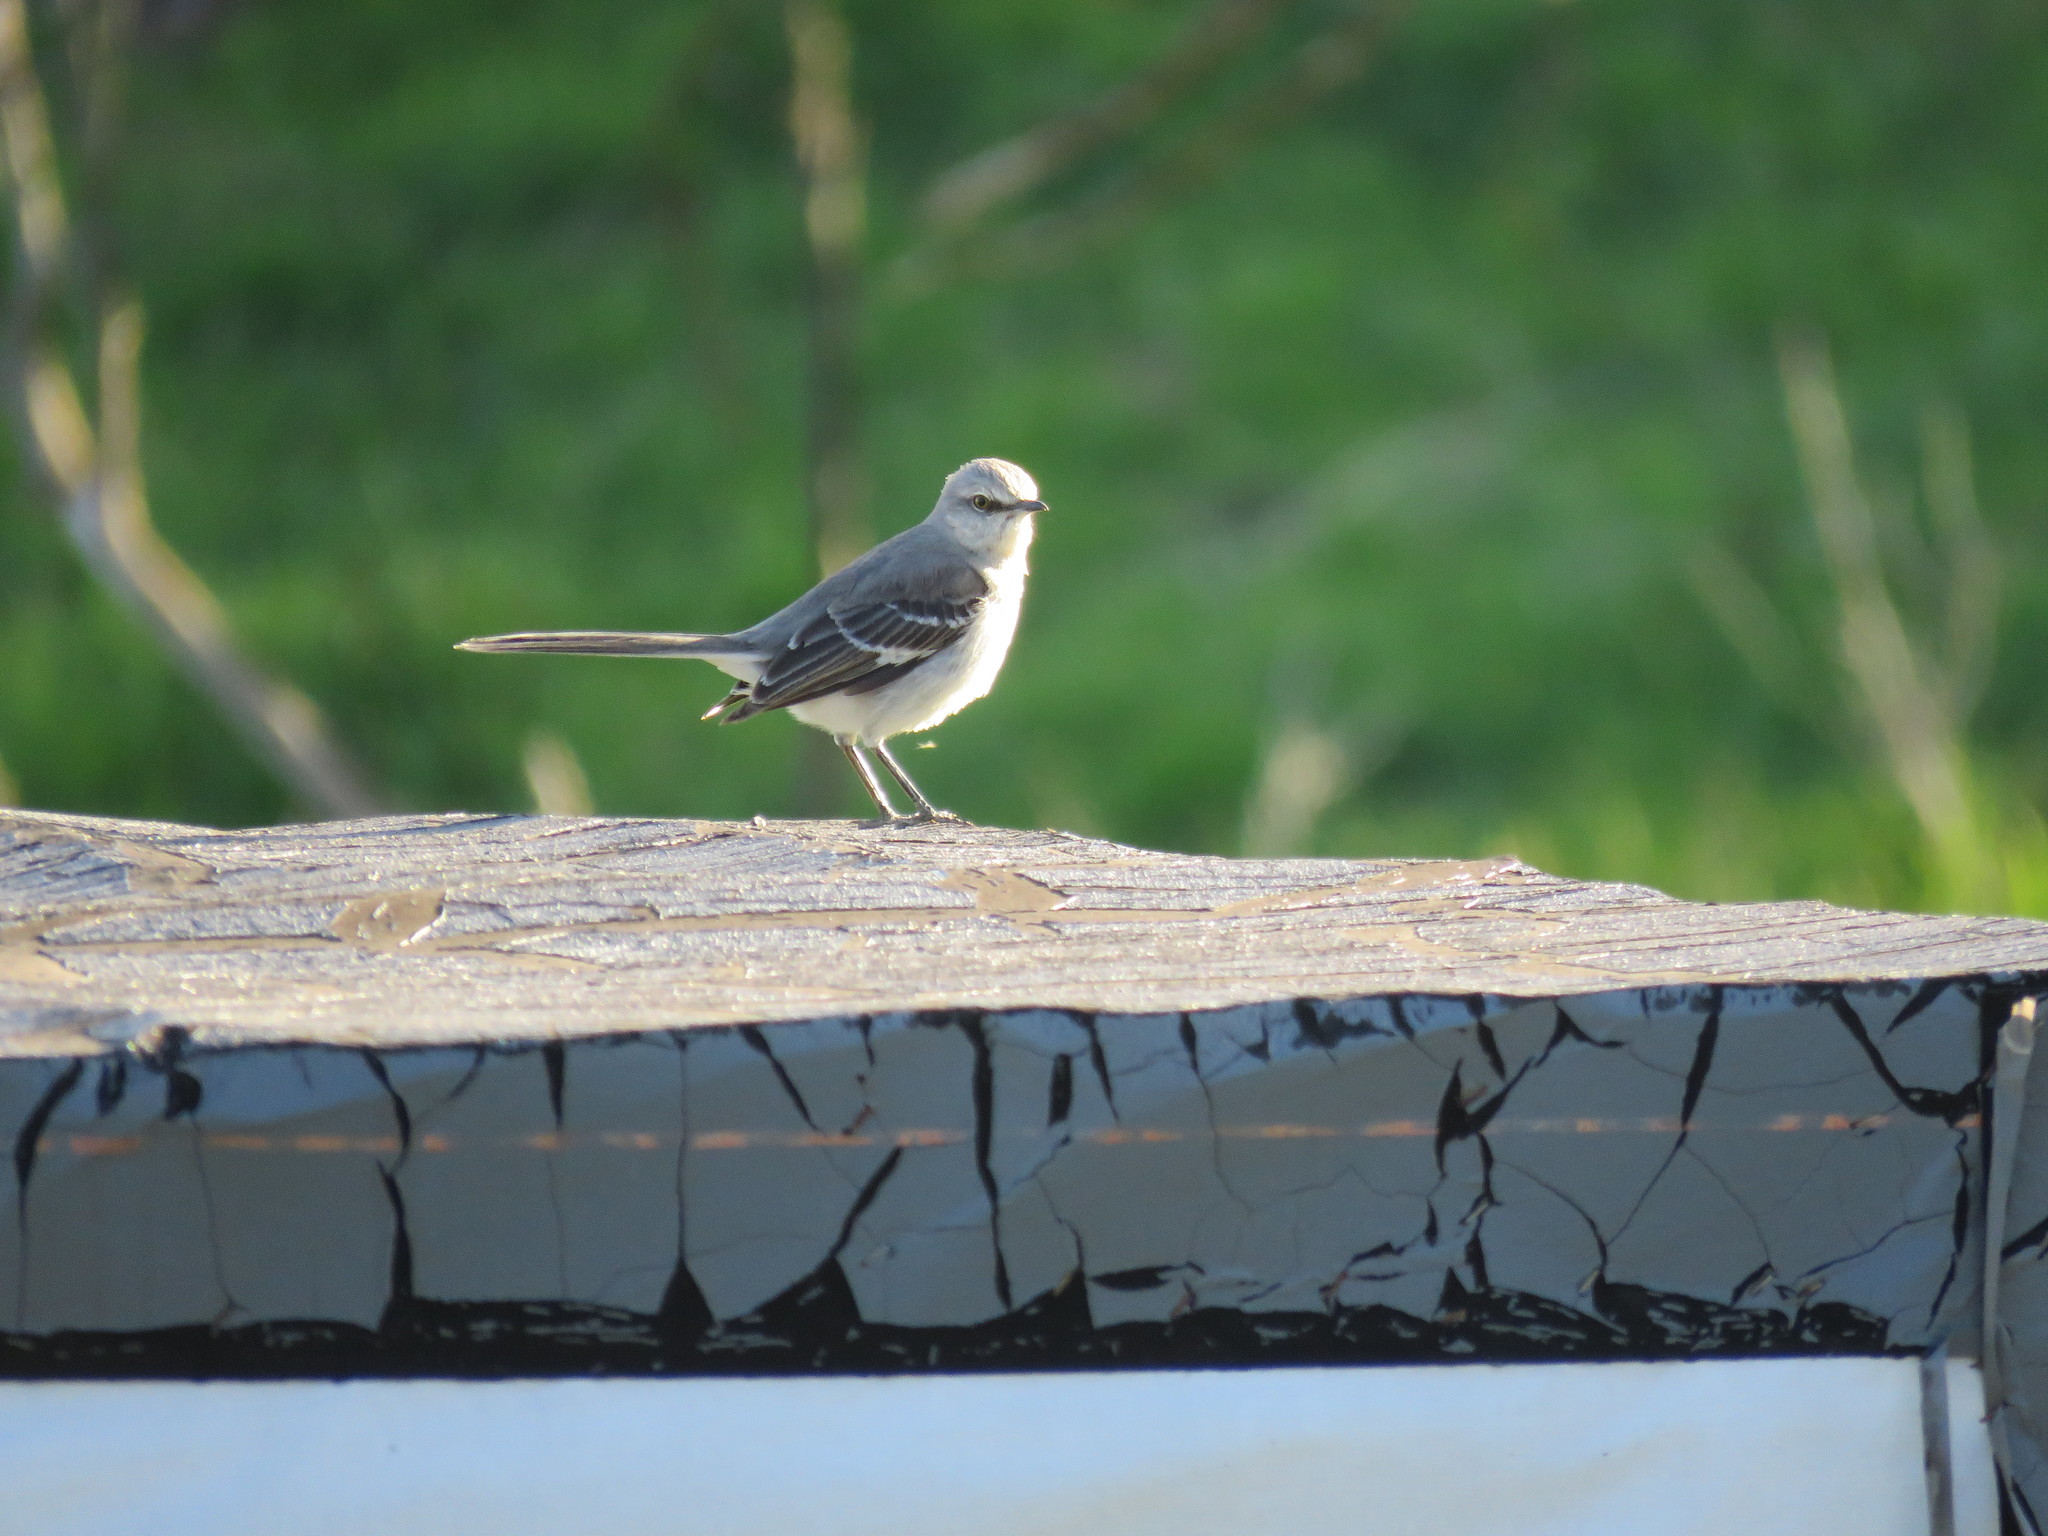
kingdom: Animalia
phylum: Chordata
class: Aves
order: Passeriformes
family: Mimidae
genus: Mimus
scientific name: Mimus polyglottos
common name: Northern mockingbird
